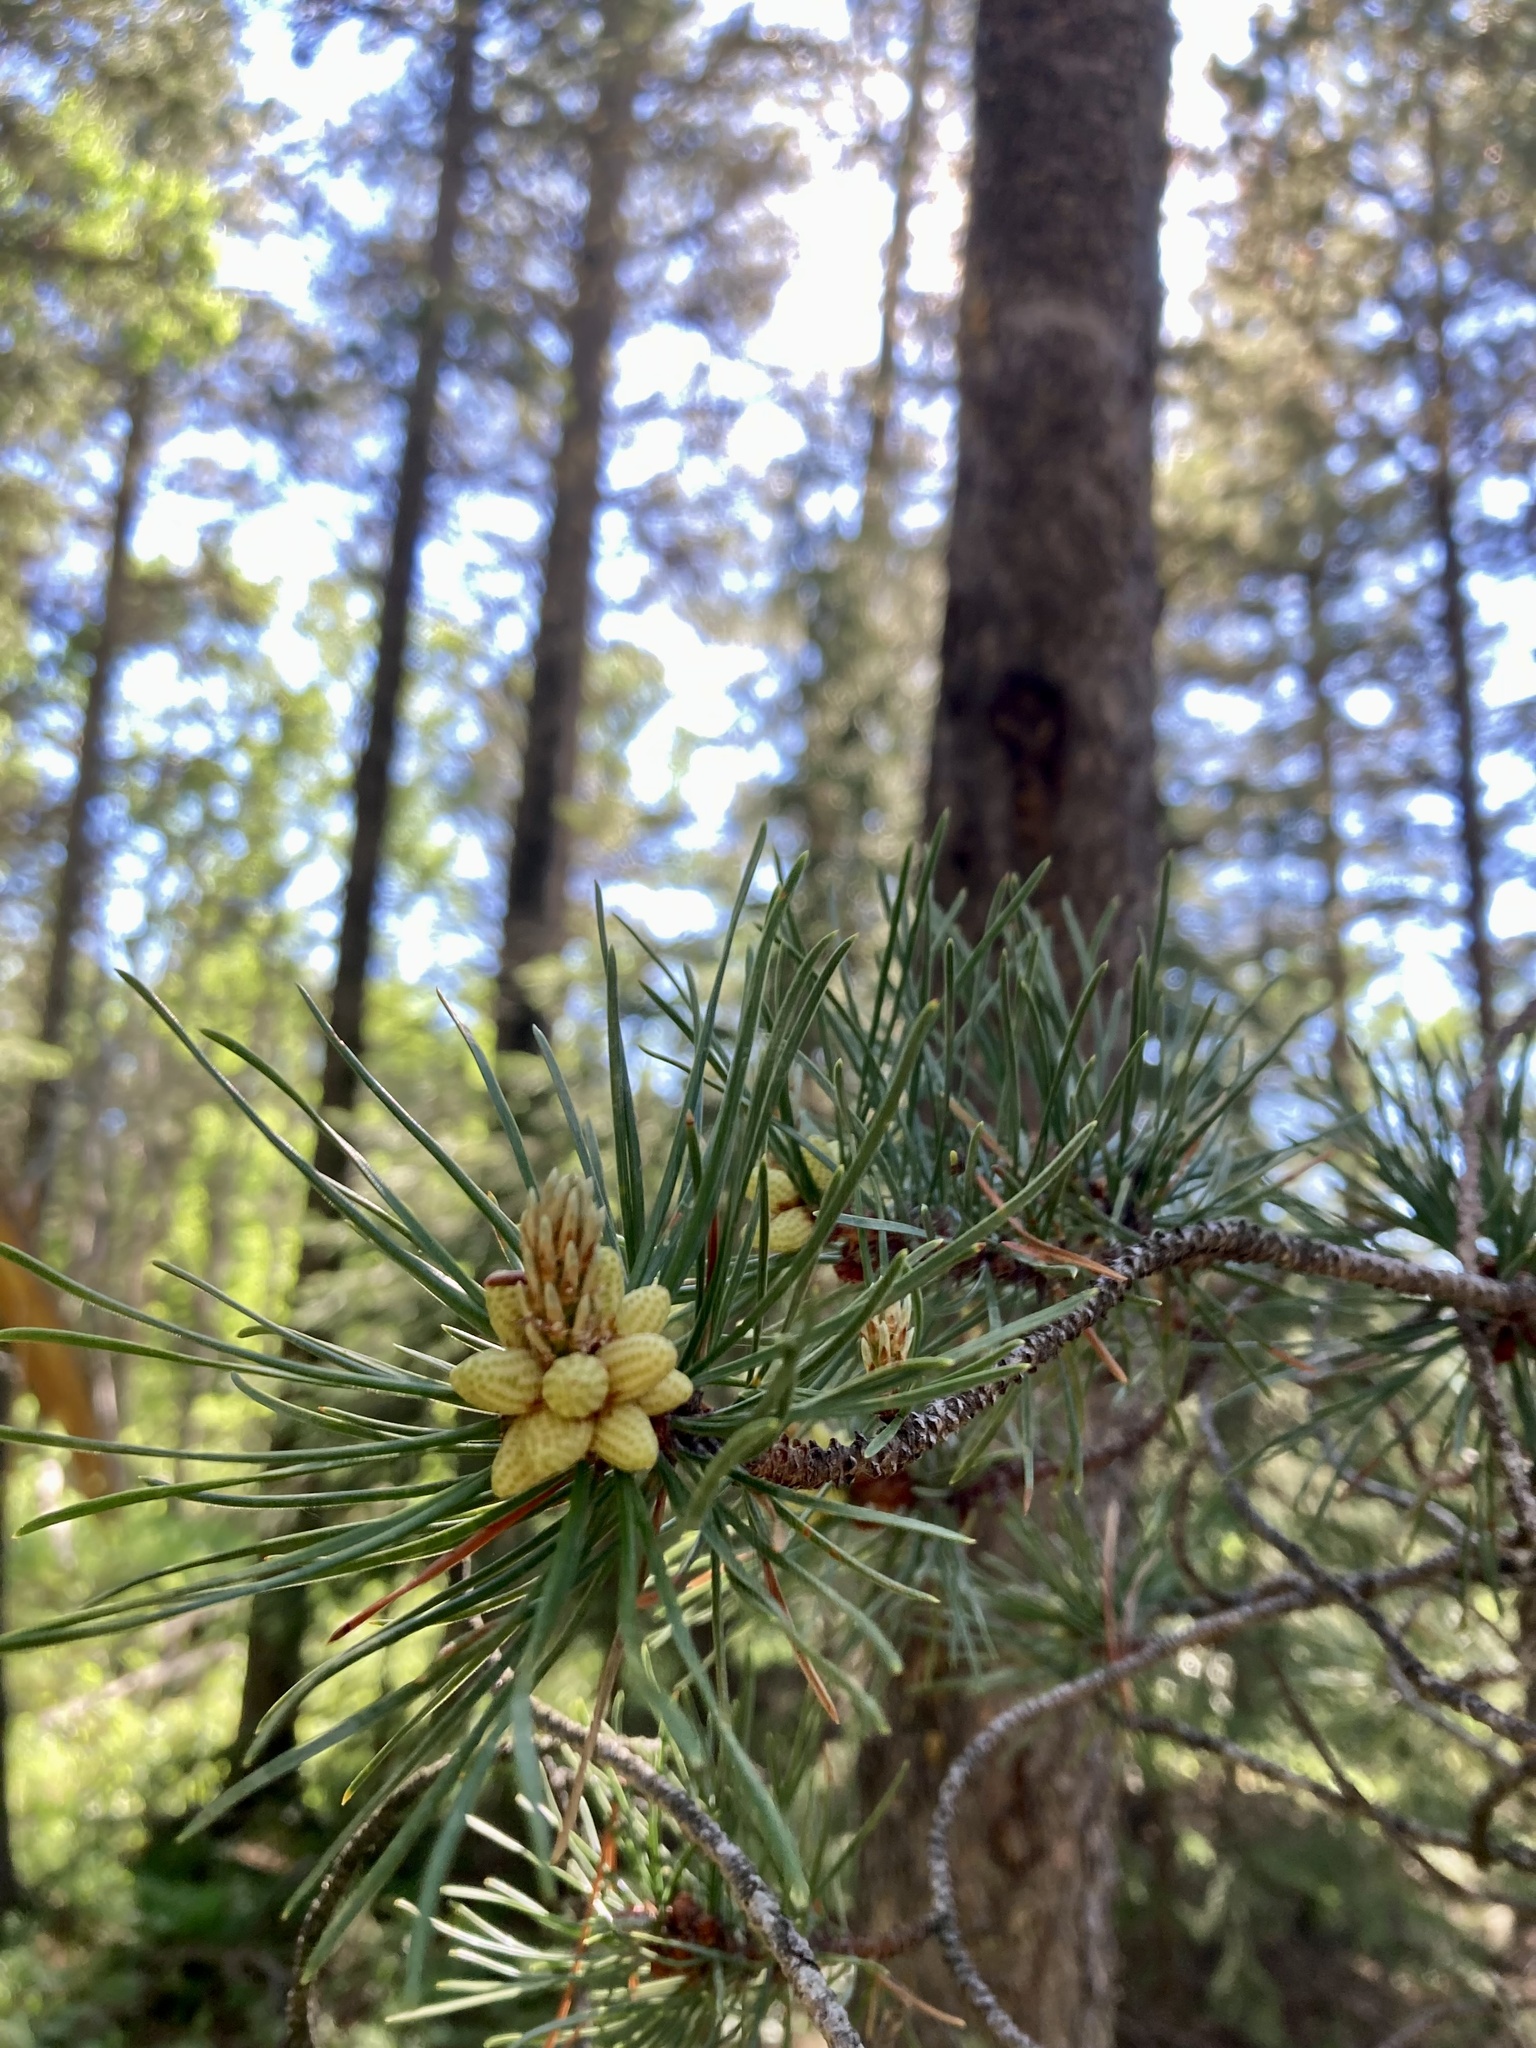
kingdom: Plantae
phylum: Tracheophyta
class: Pinopsida
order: Pinales
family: Pinaceae
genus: Pinus
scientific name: Pinus contorta
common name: Lodgepole pine
